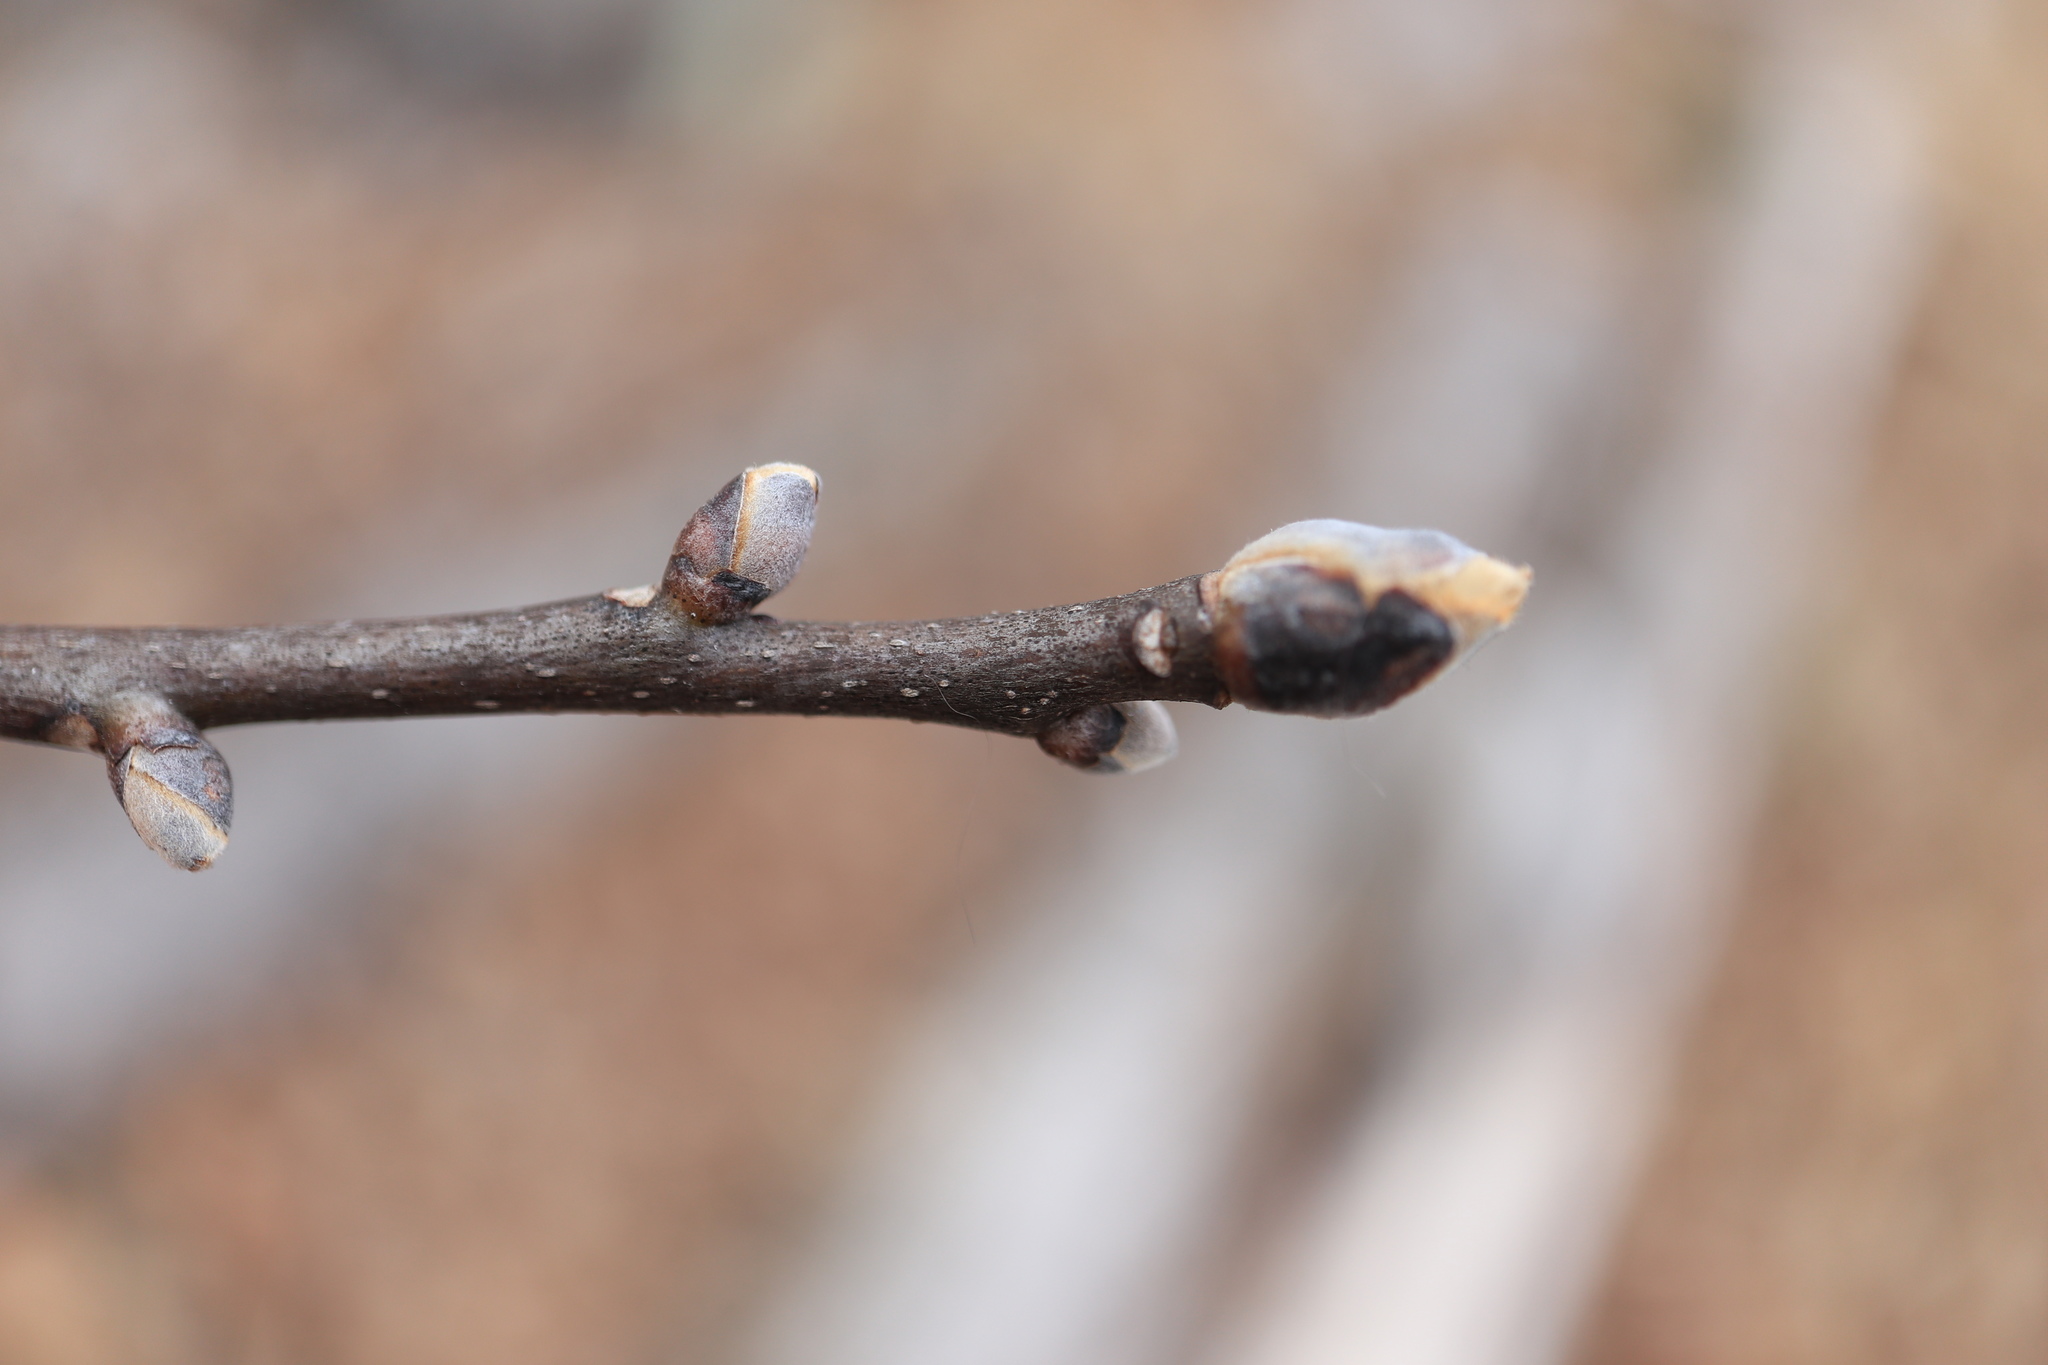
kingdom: Plantae
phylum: Tracheophyta
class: Magnoliopsida
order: Fagales
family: Juglandaceae
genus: Carya
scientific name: Carya glabra
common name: Pignut hickory
